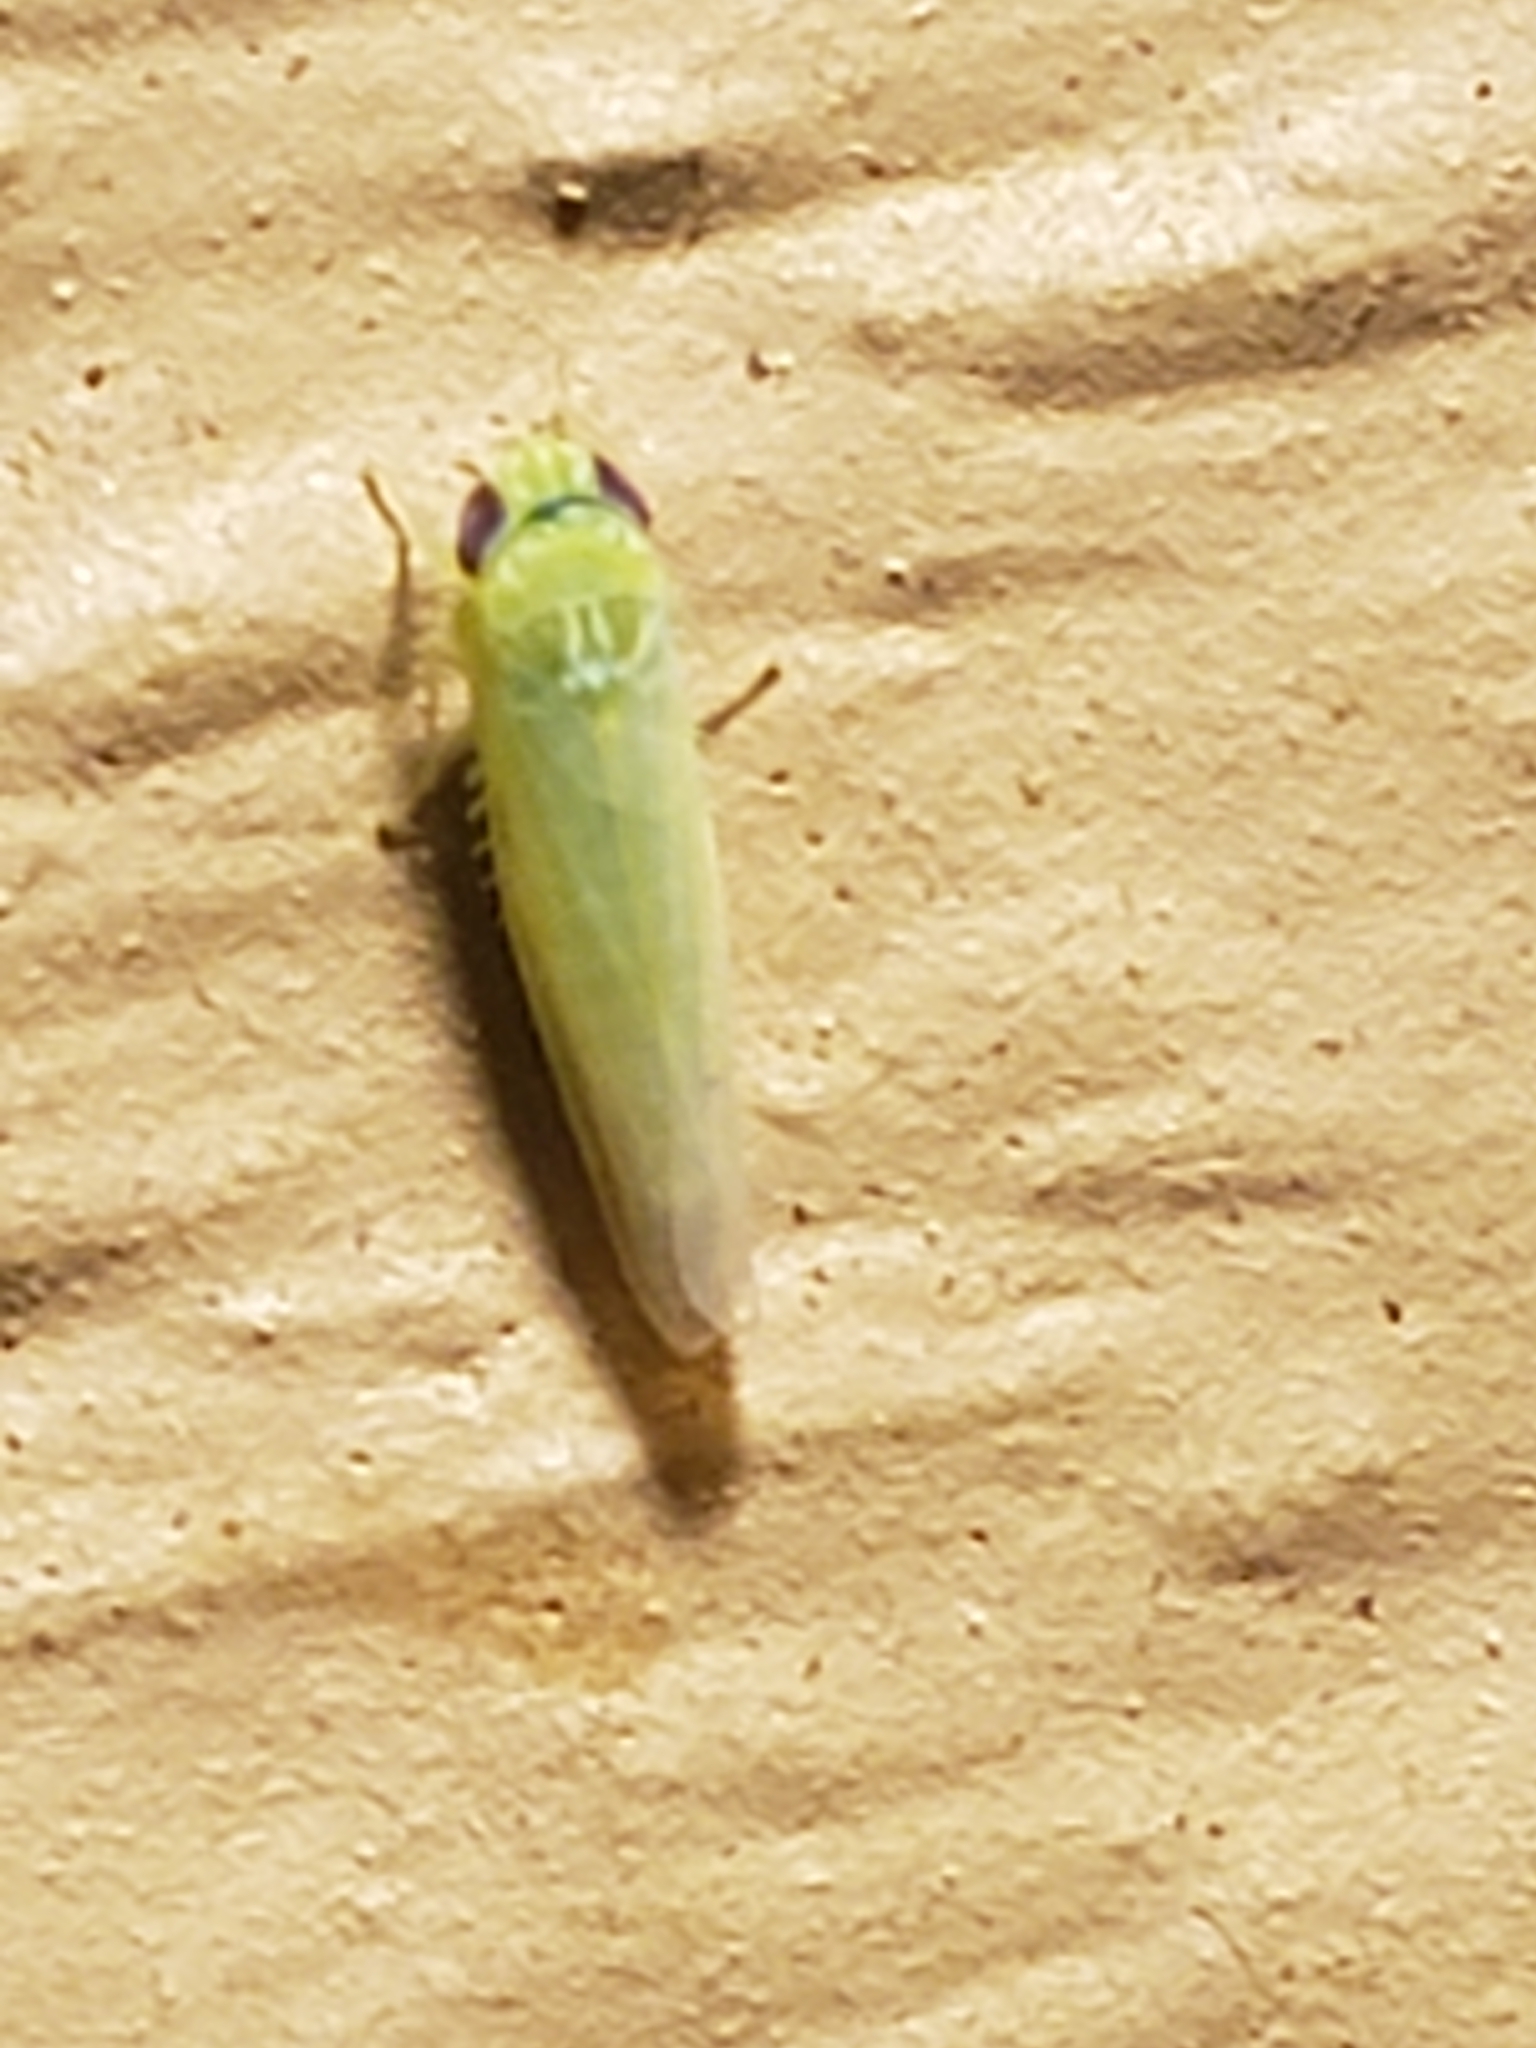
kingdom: Animalia
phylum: Arthropoda
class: Insecta
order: Hemiptera
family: Cicadellidae
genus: Empoasca
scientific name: Empoasca fabae
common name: Potato leafhopper
